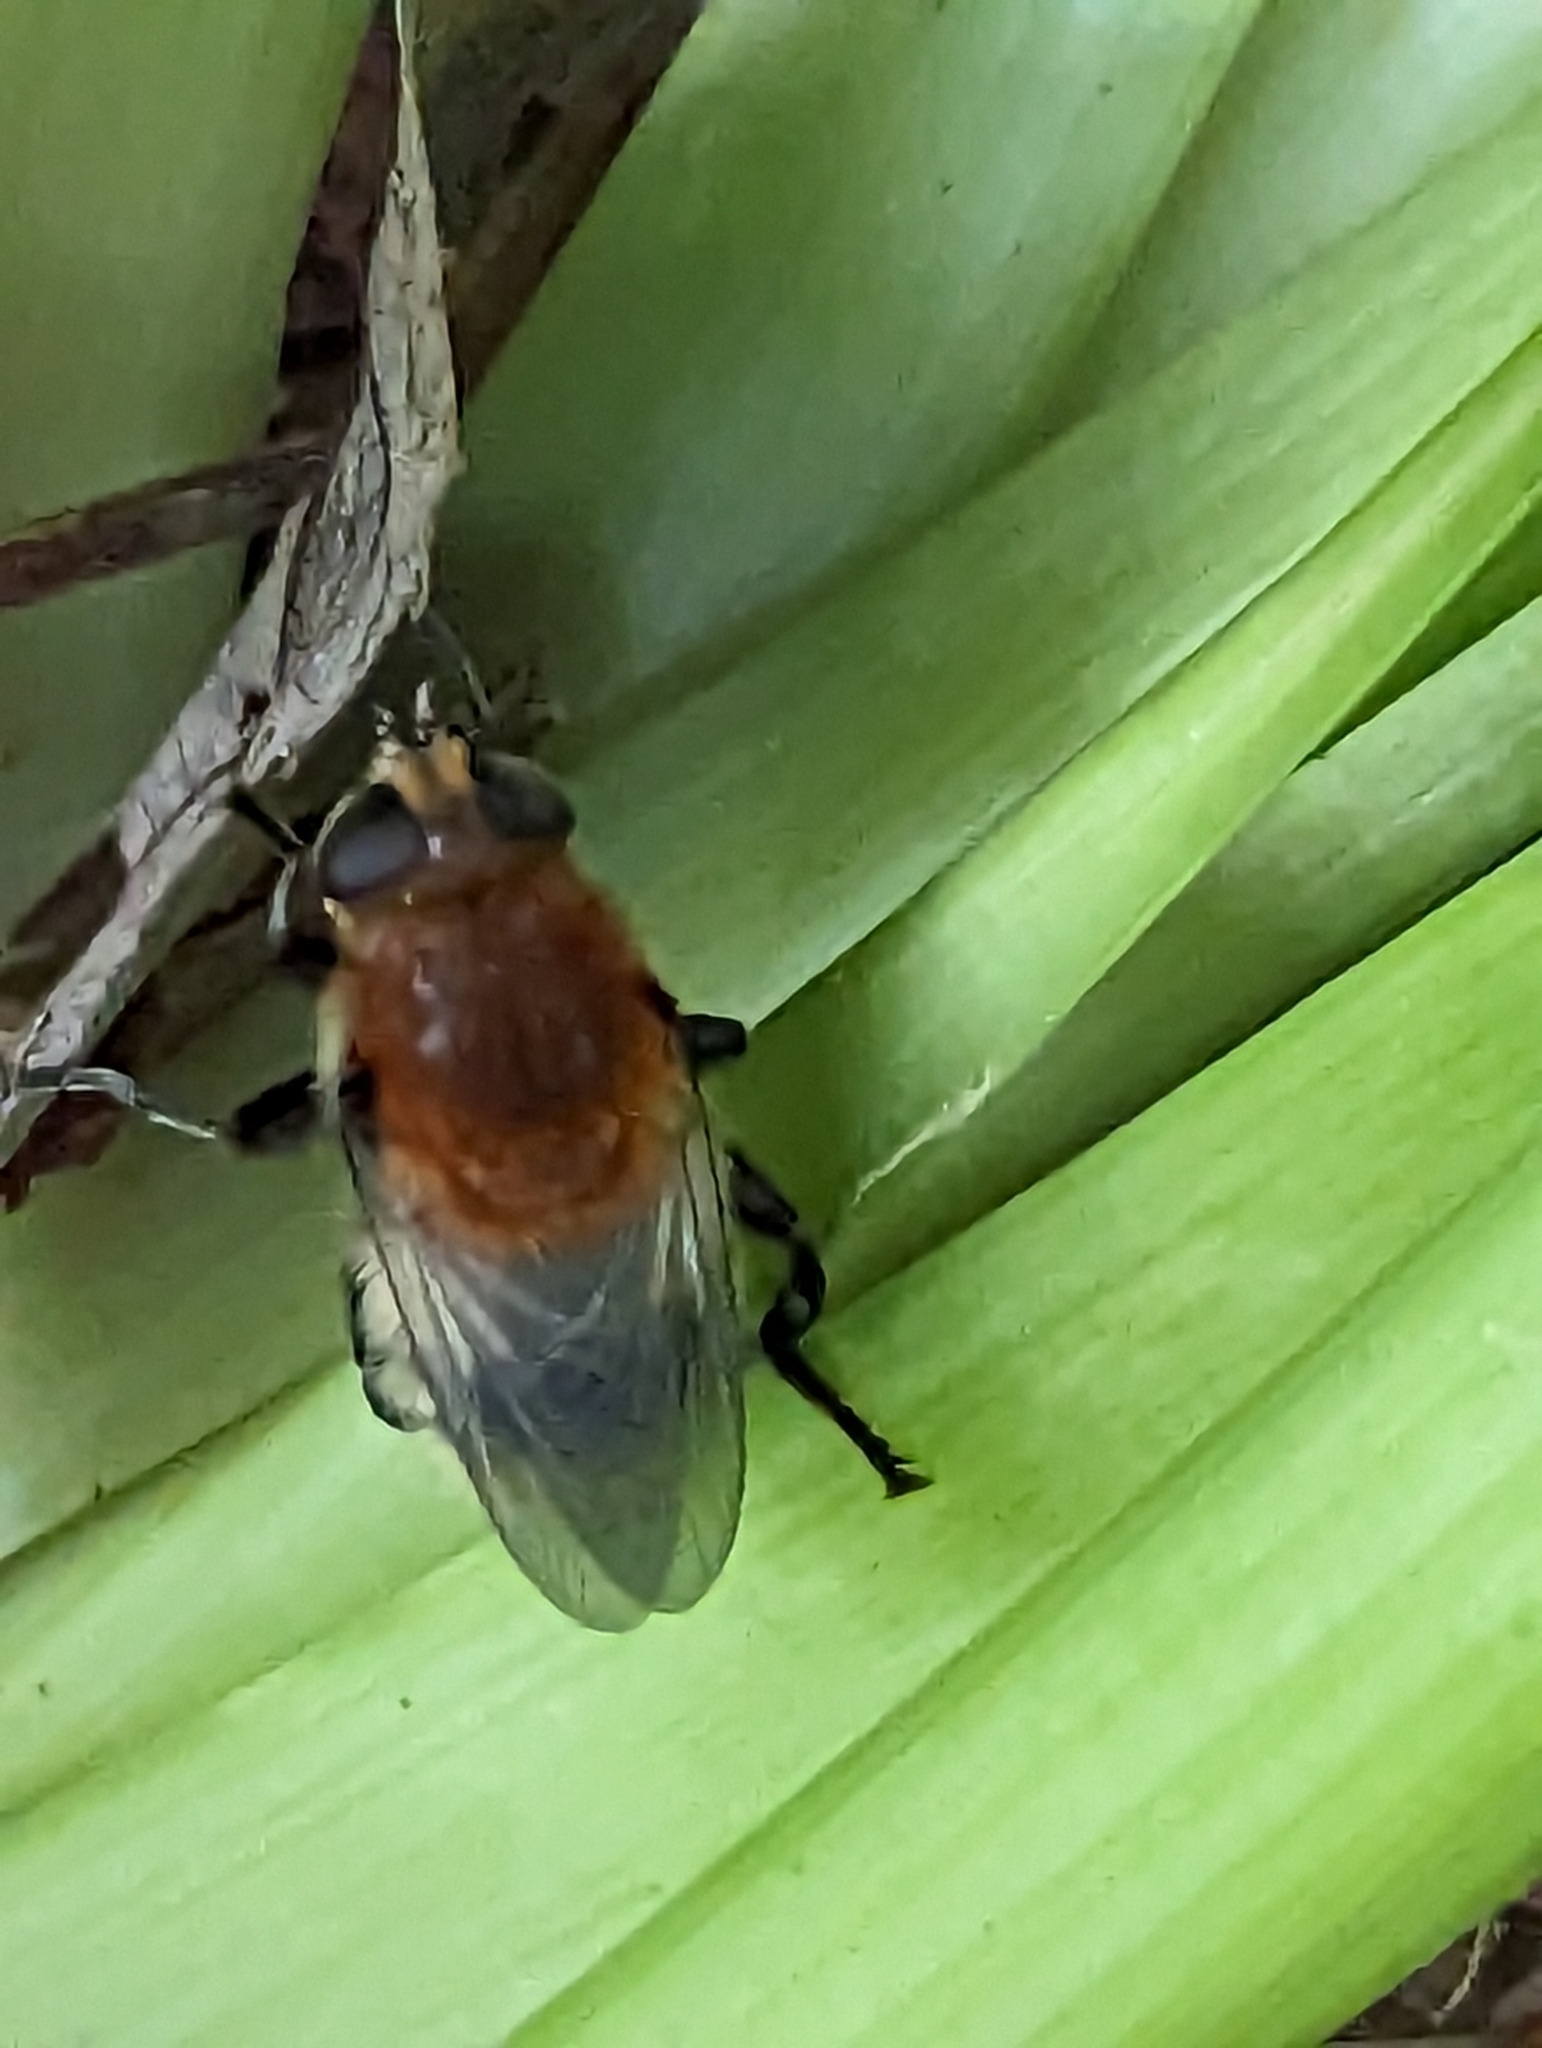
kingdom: Animalia
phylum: Arthropoda
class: Insecta
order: Diptera
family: Syrphidae
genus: Merodon
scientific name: Merodon equestris
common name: Greater bulb-fly
